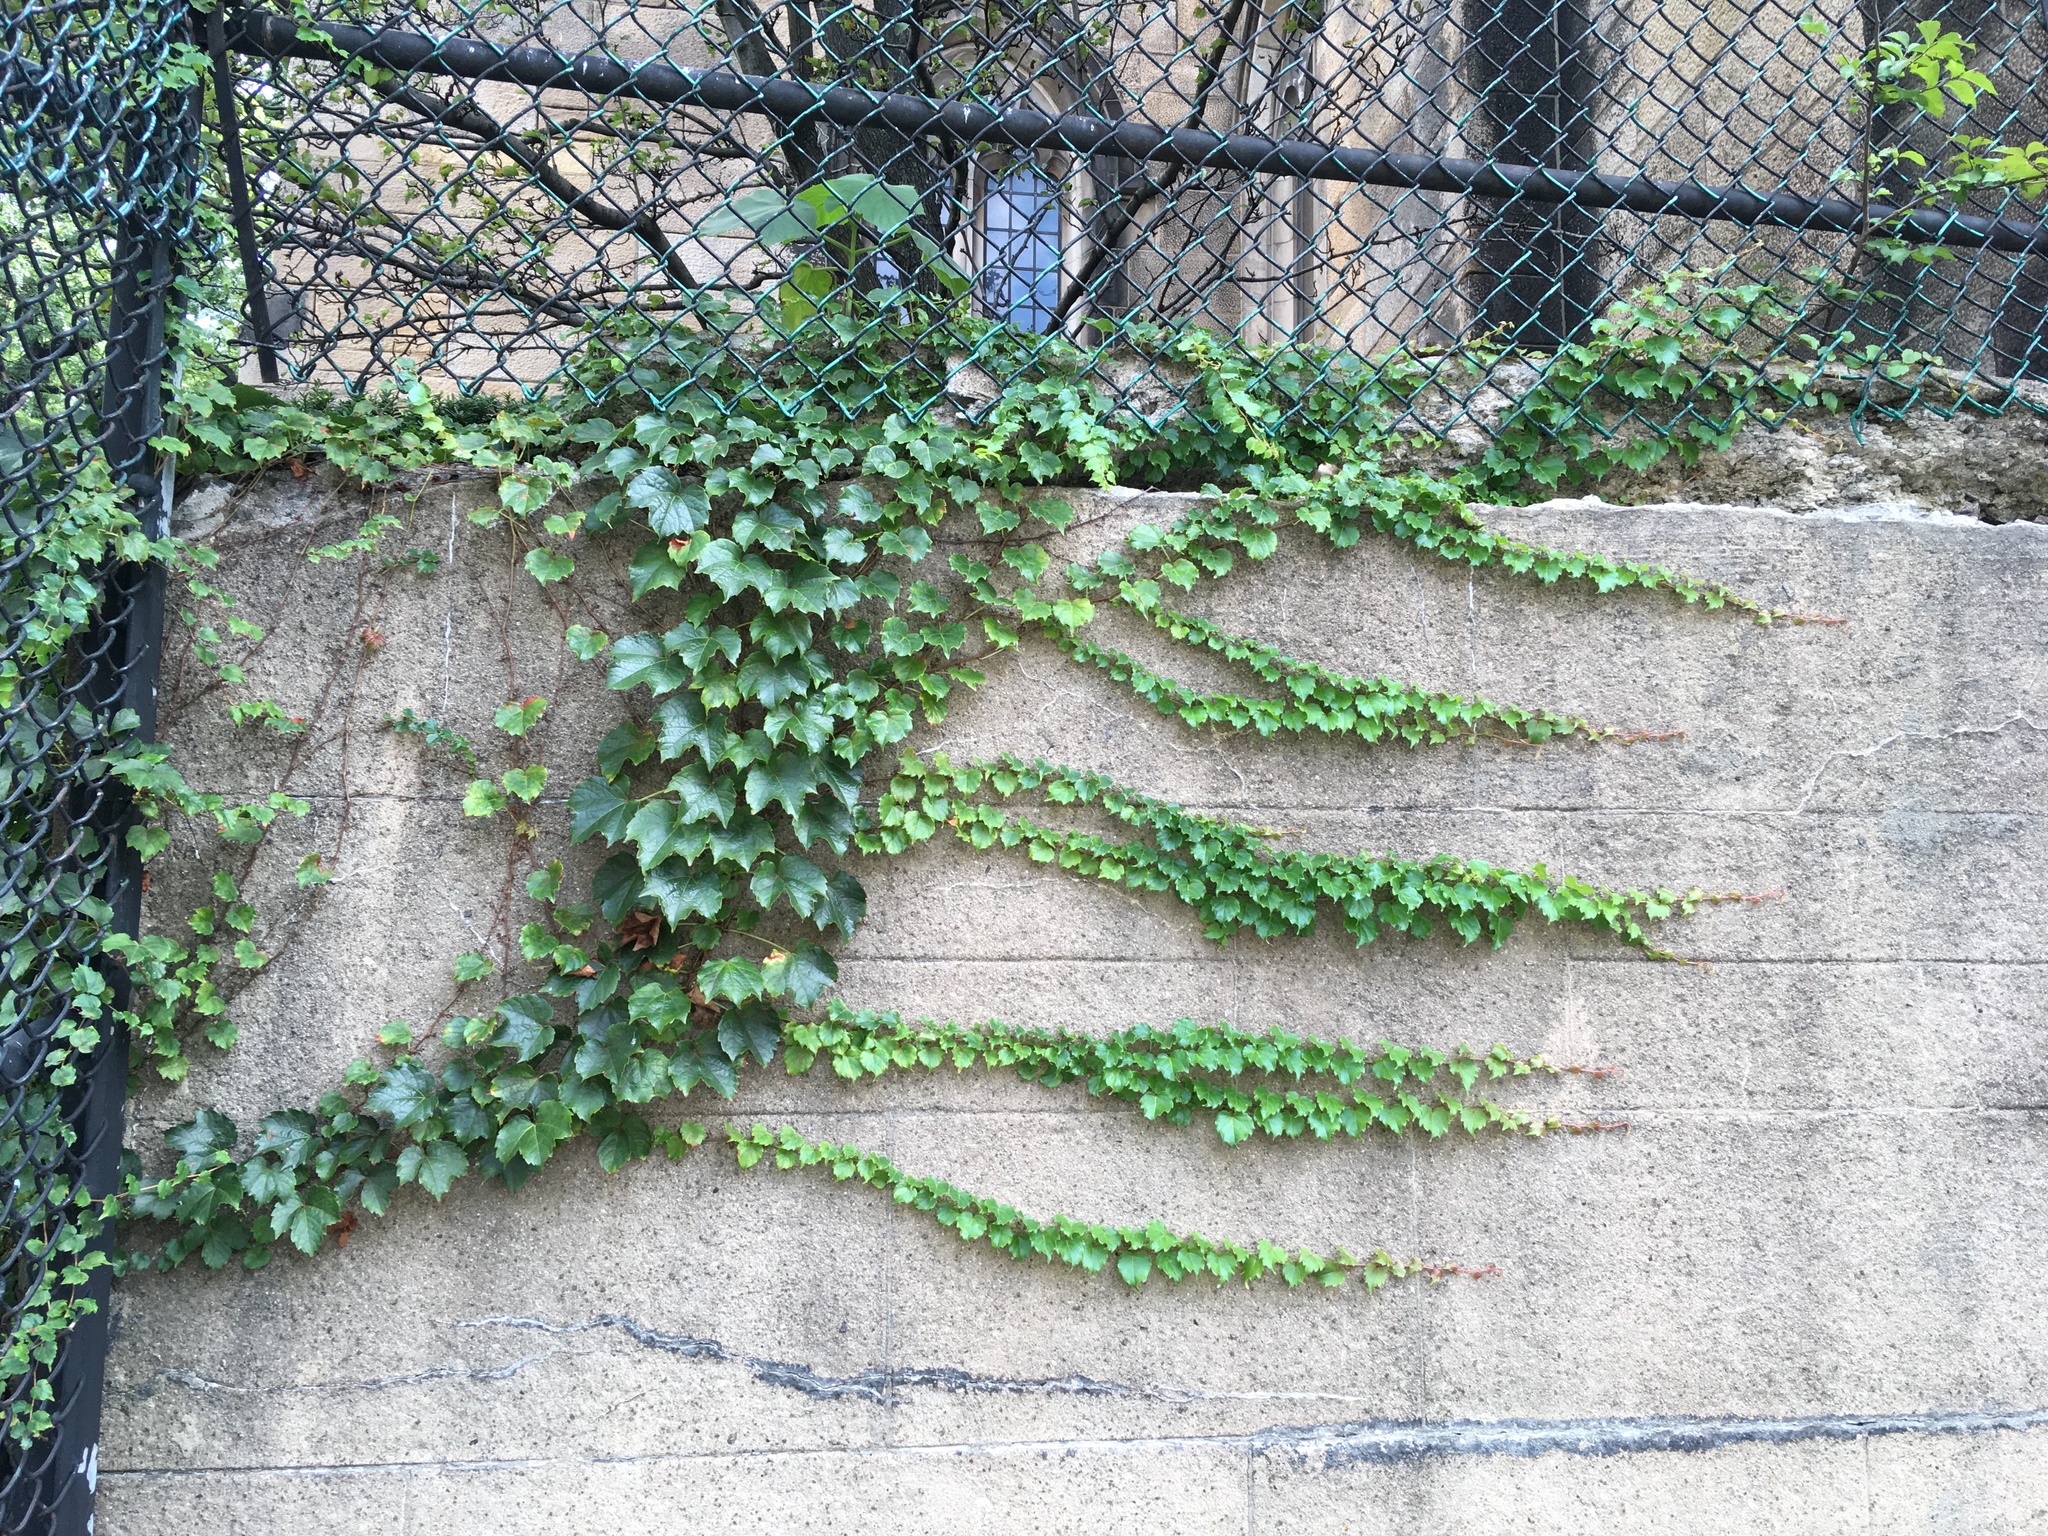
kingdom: Plantae
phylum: Tracheophyta
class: Magnoliopsida
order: Vitales
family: Vitaceae
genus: Parthenocissus
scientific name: Parthenocissus tricuspidata
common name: Boston ivy
